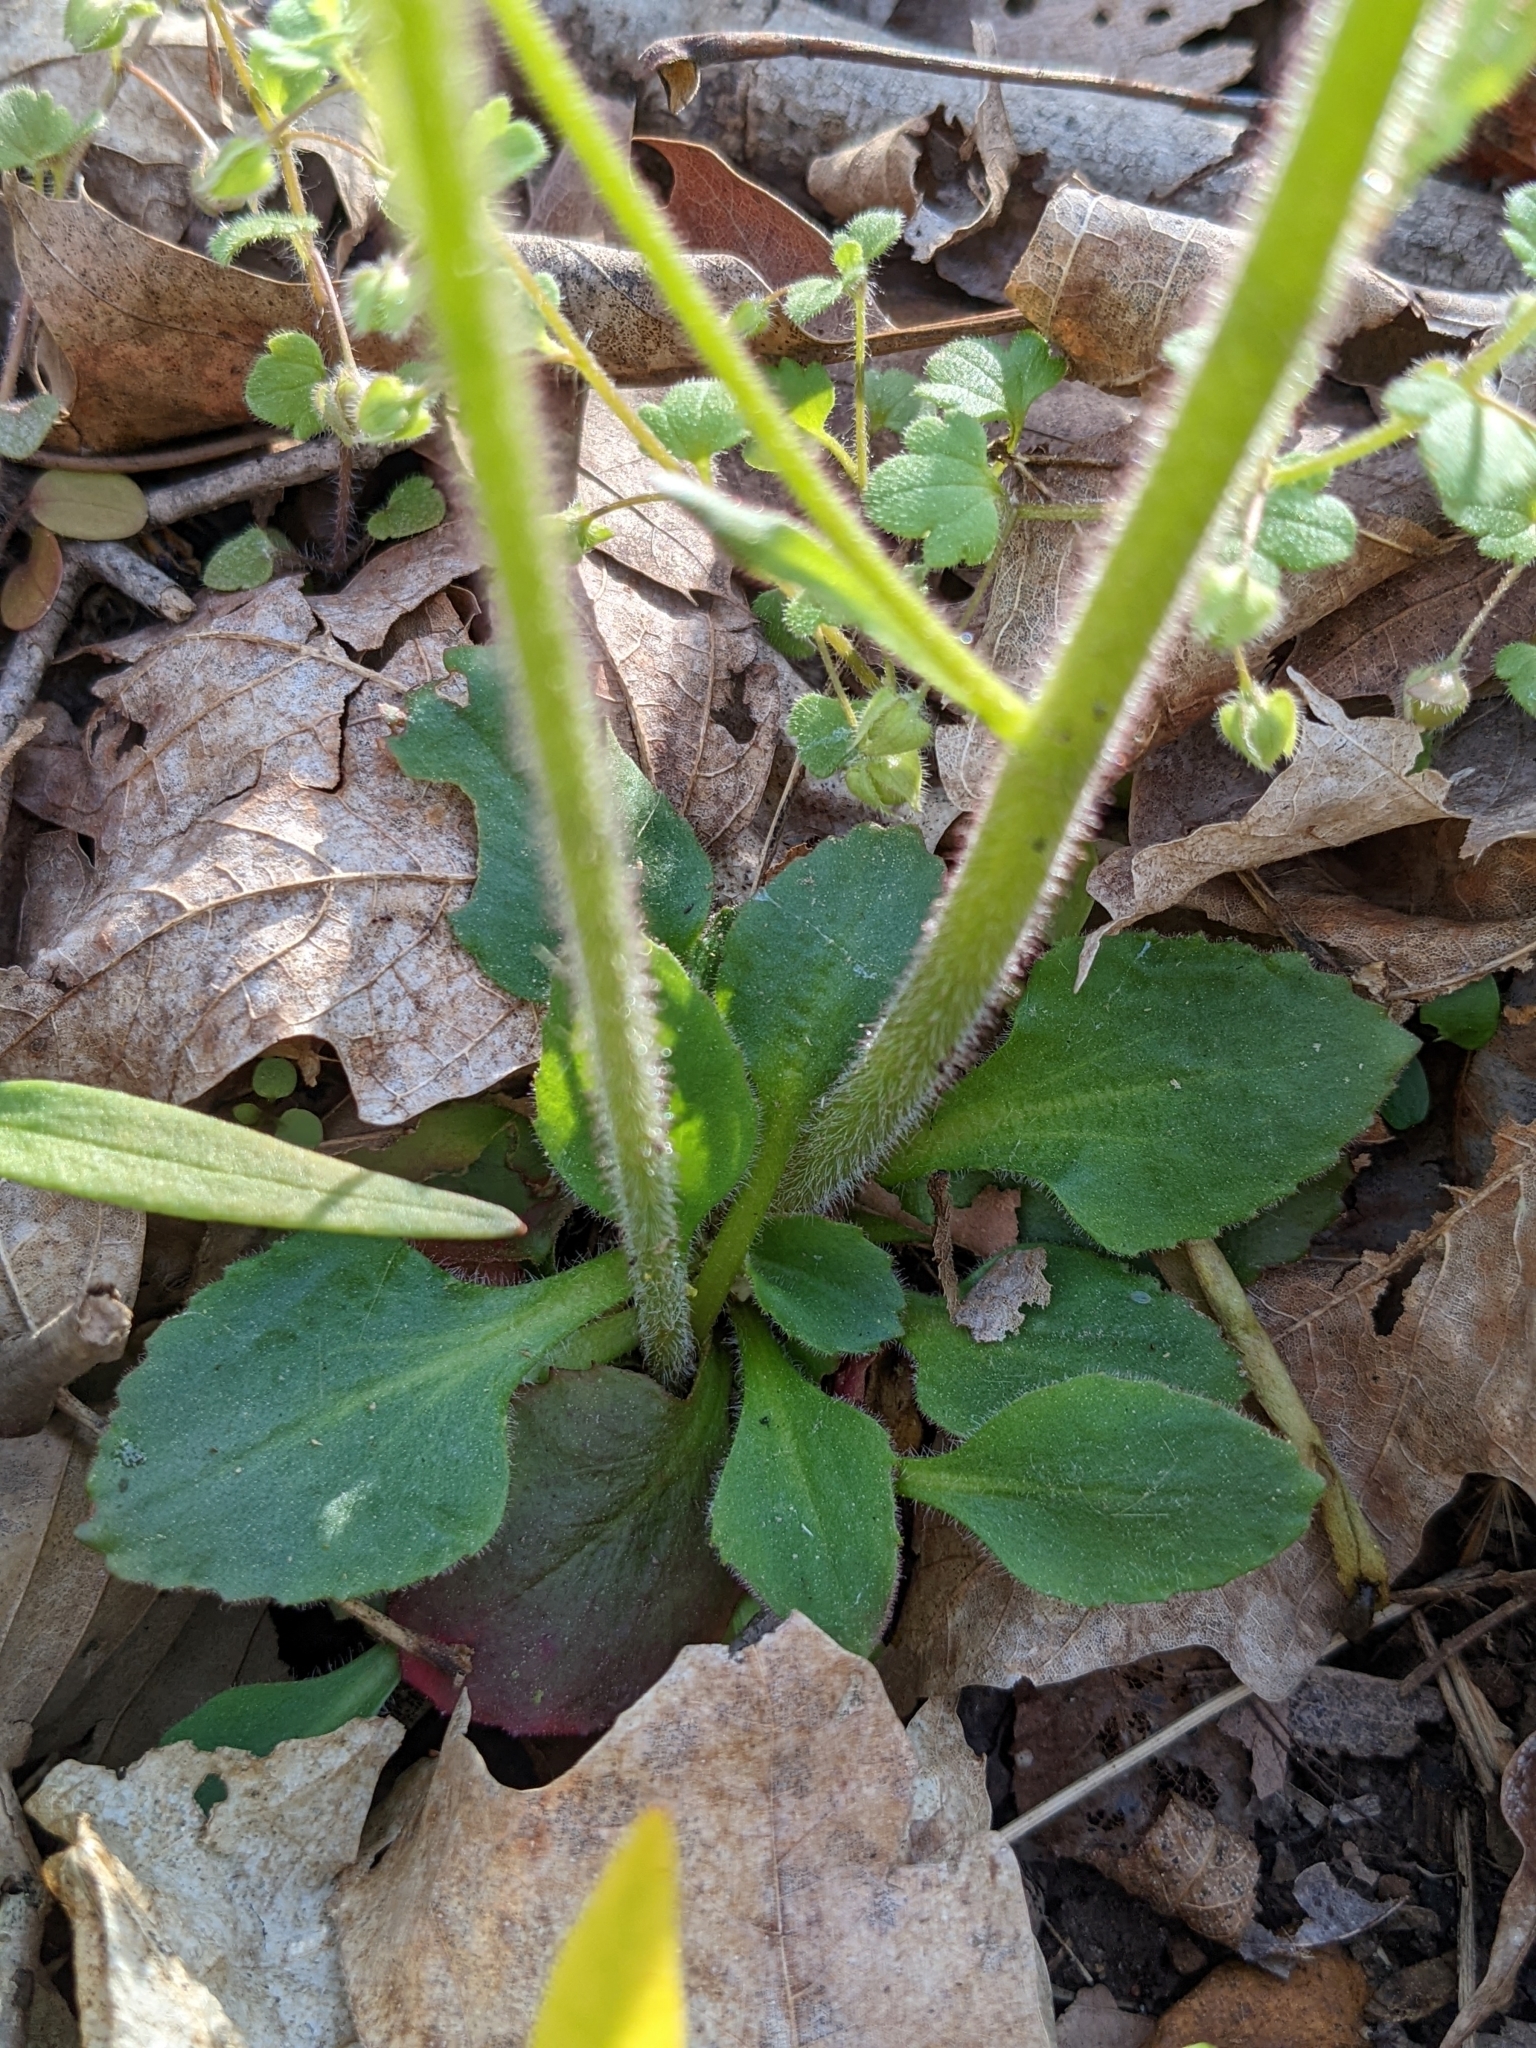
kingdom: Plantae
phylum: Tracheophyta
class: Magnoliopsida
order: Saxifragales
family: Saxifragaceae
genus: Micranthes
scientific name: Micranthes virginiensis
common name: Early saxifrage
